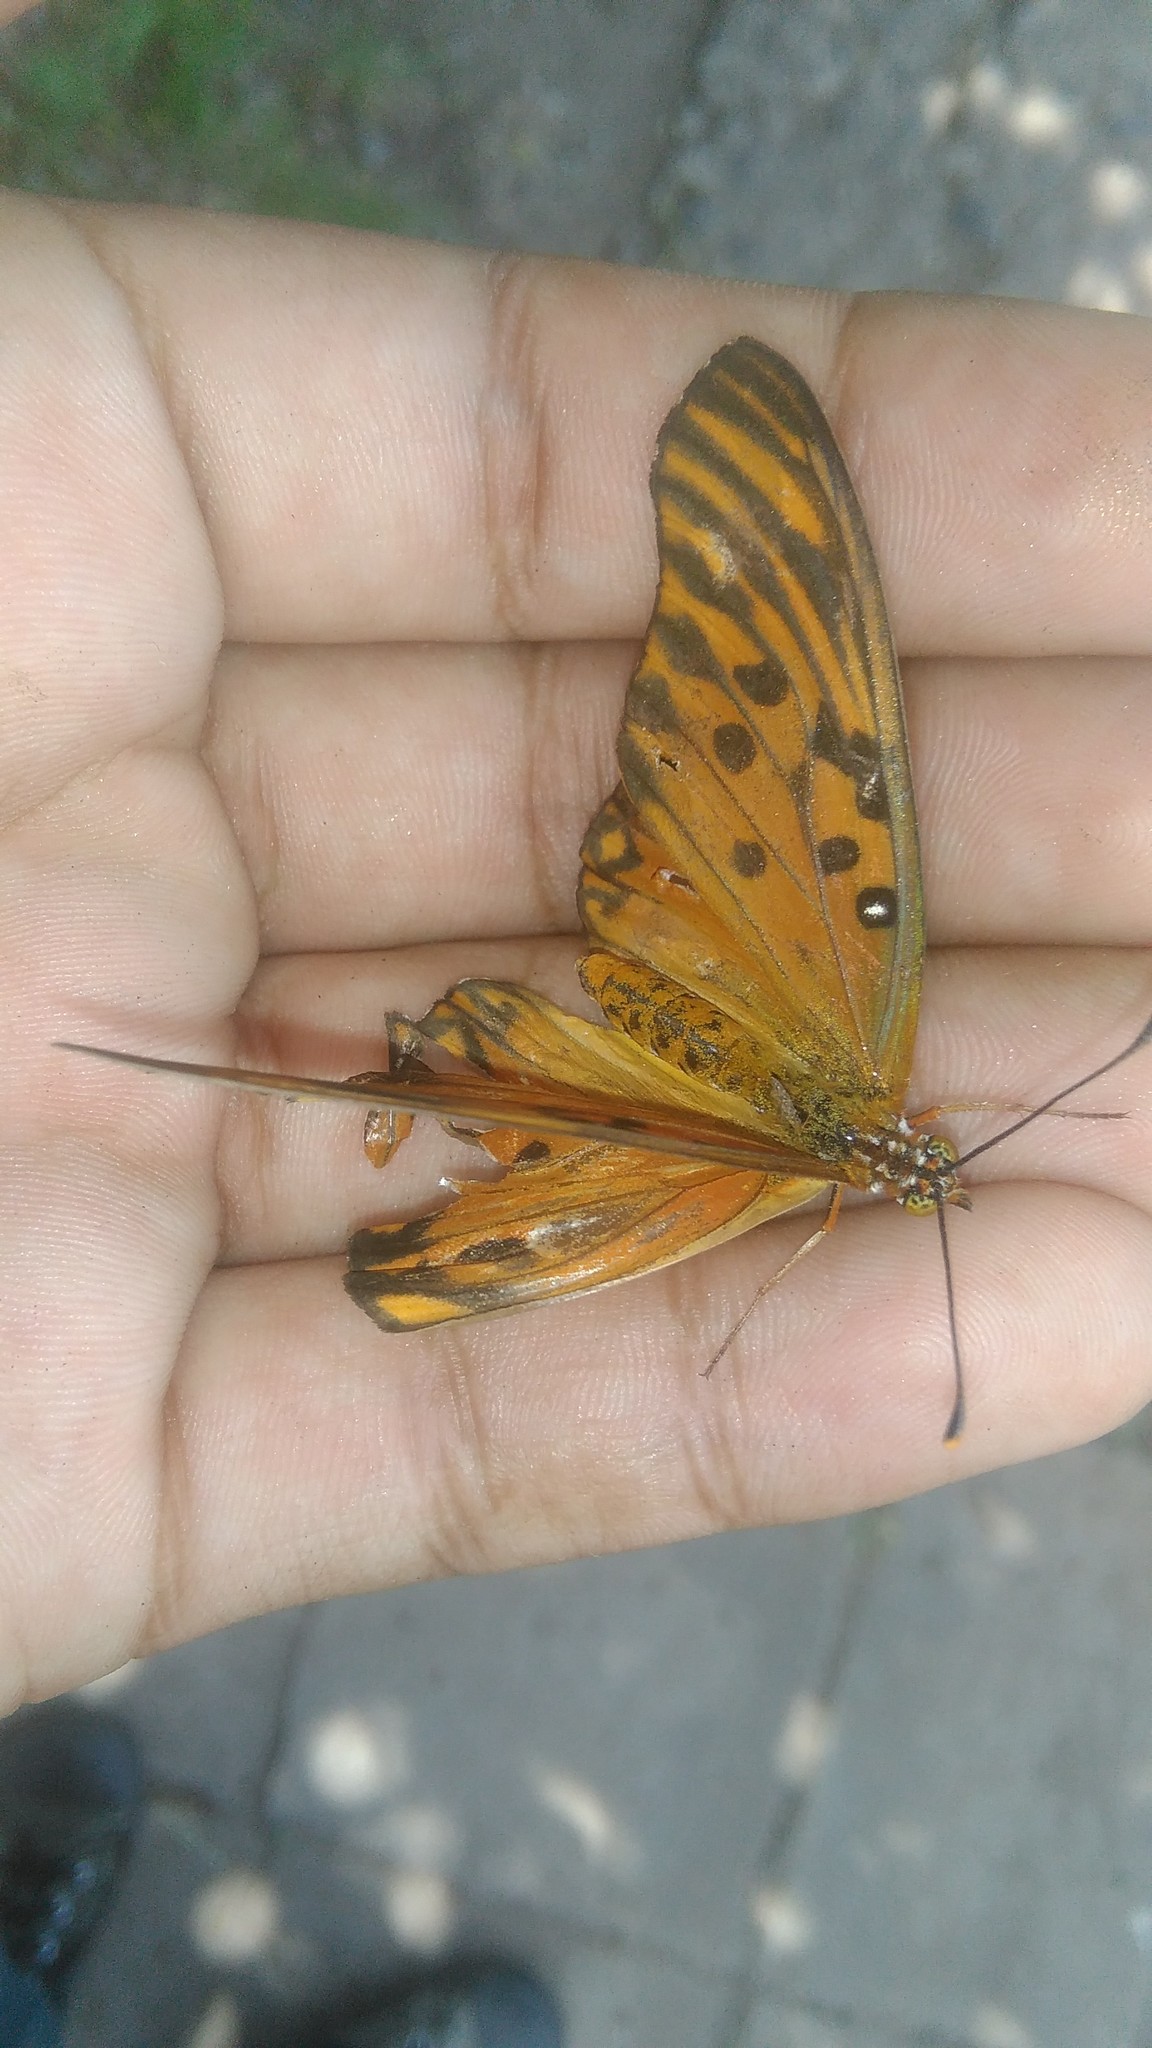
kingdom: Animalia
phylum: Arthropoda
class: Insecta
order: Lepidoptera
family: Nymphalidae
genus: Dione
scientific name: Dione vanillae
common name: Gulf fritillary
